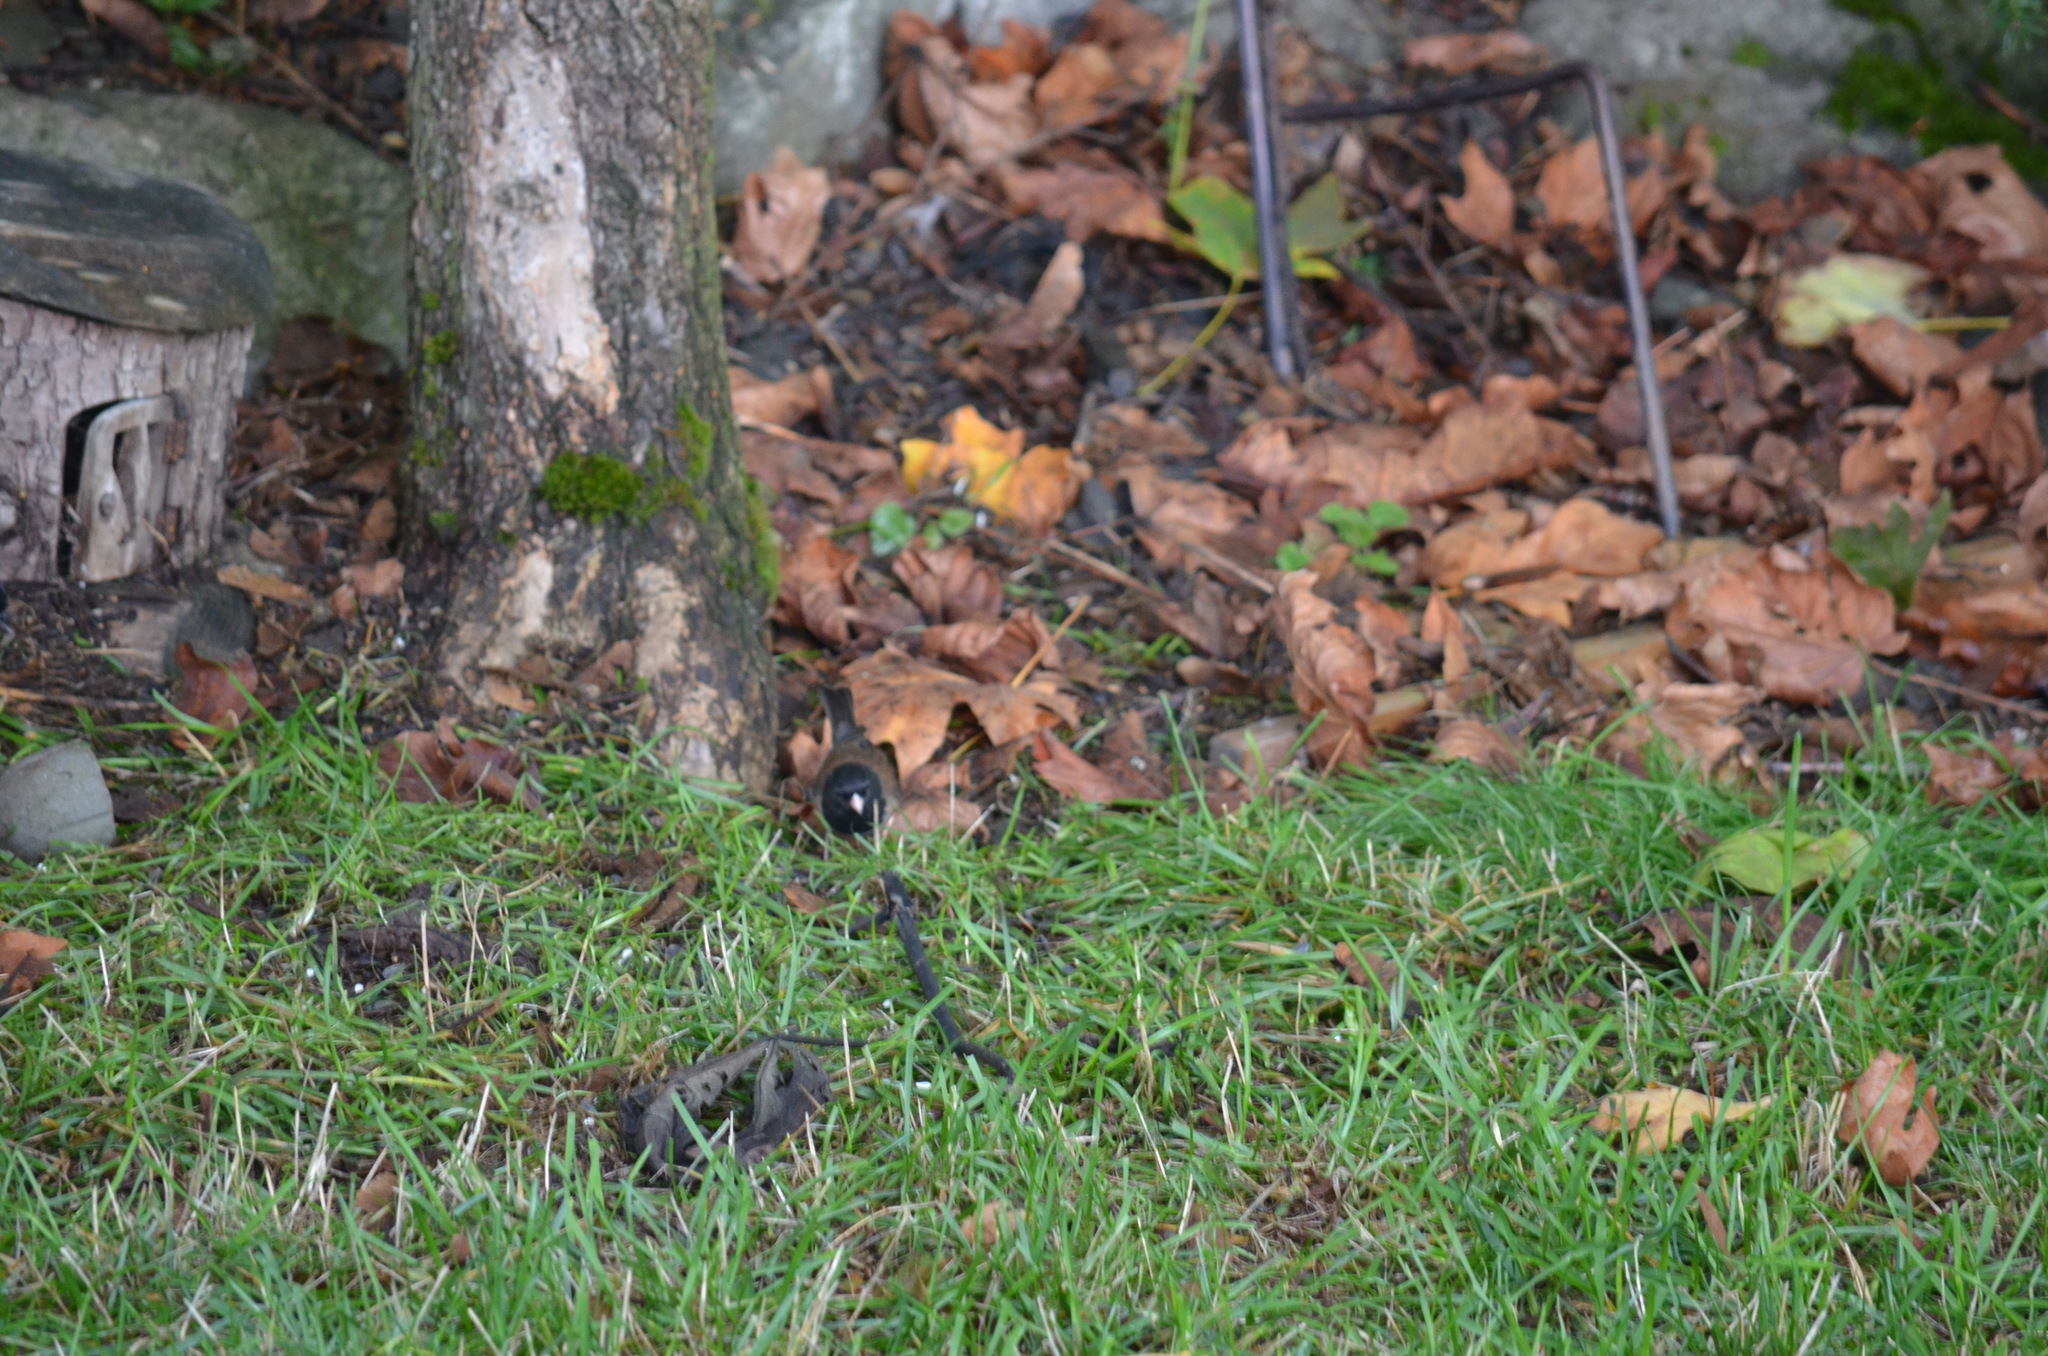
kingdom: Animalia
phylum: Chordata
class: Aves
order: Passeriformes
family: Passerellidae
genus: Junco
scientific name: Junco hyemalis
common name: Dark-eyed junco
